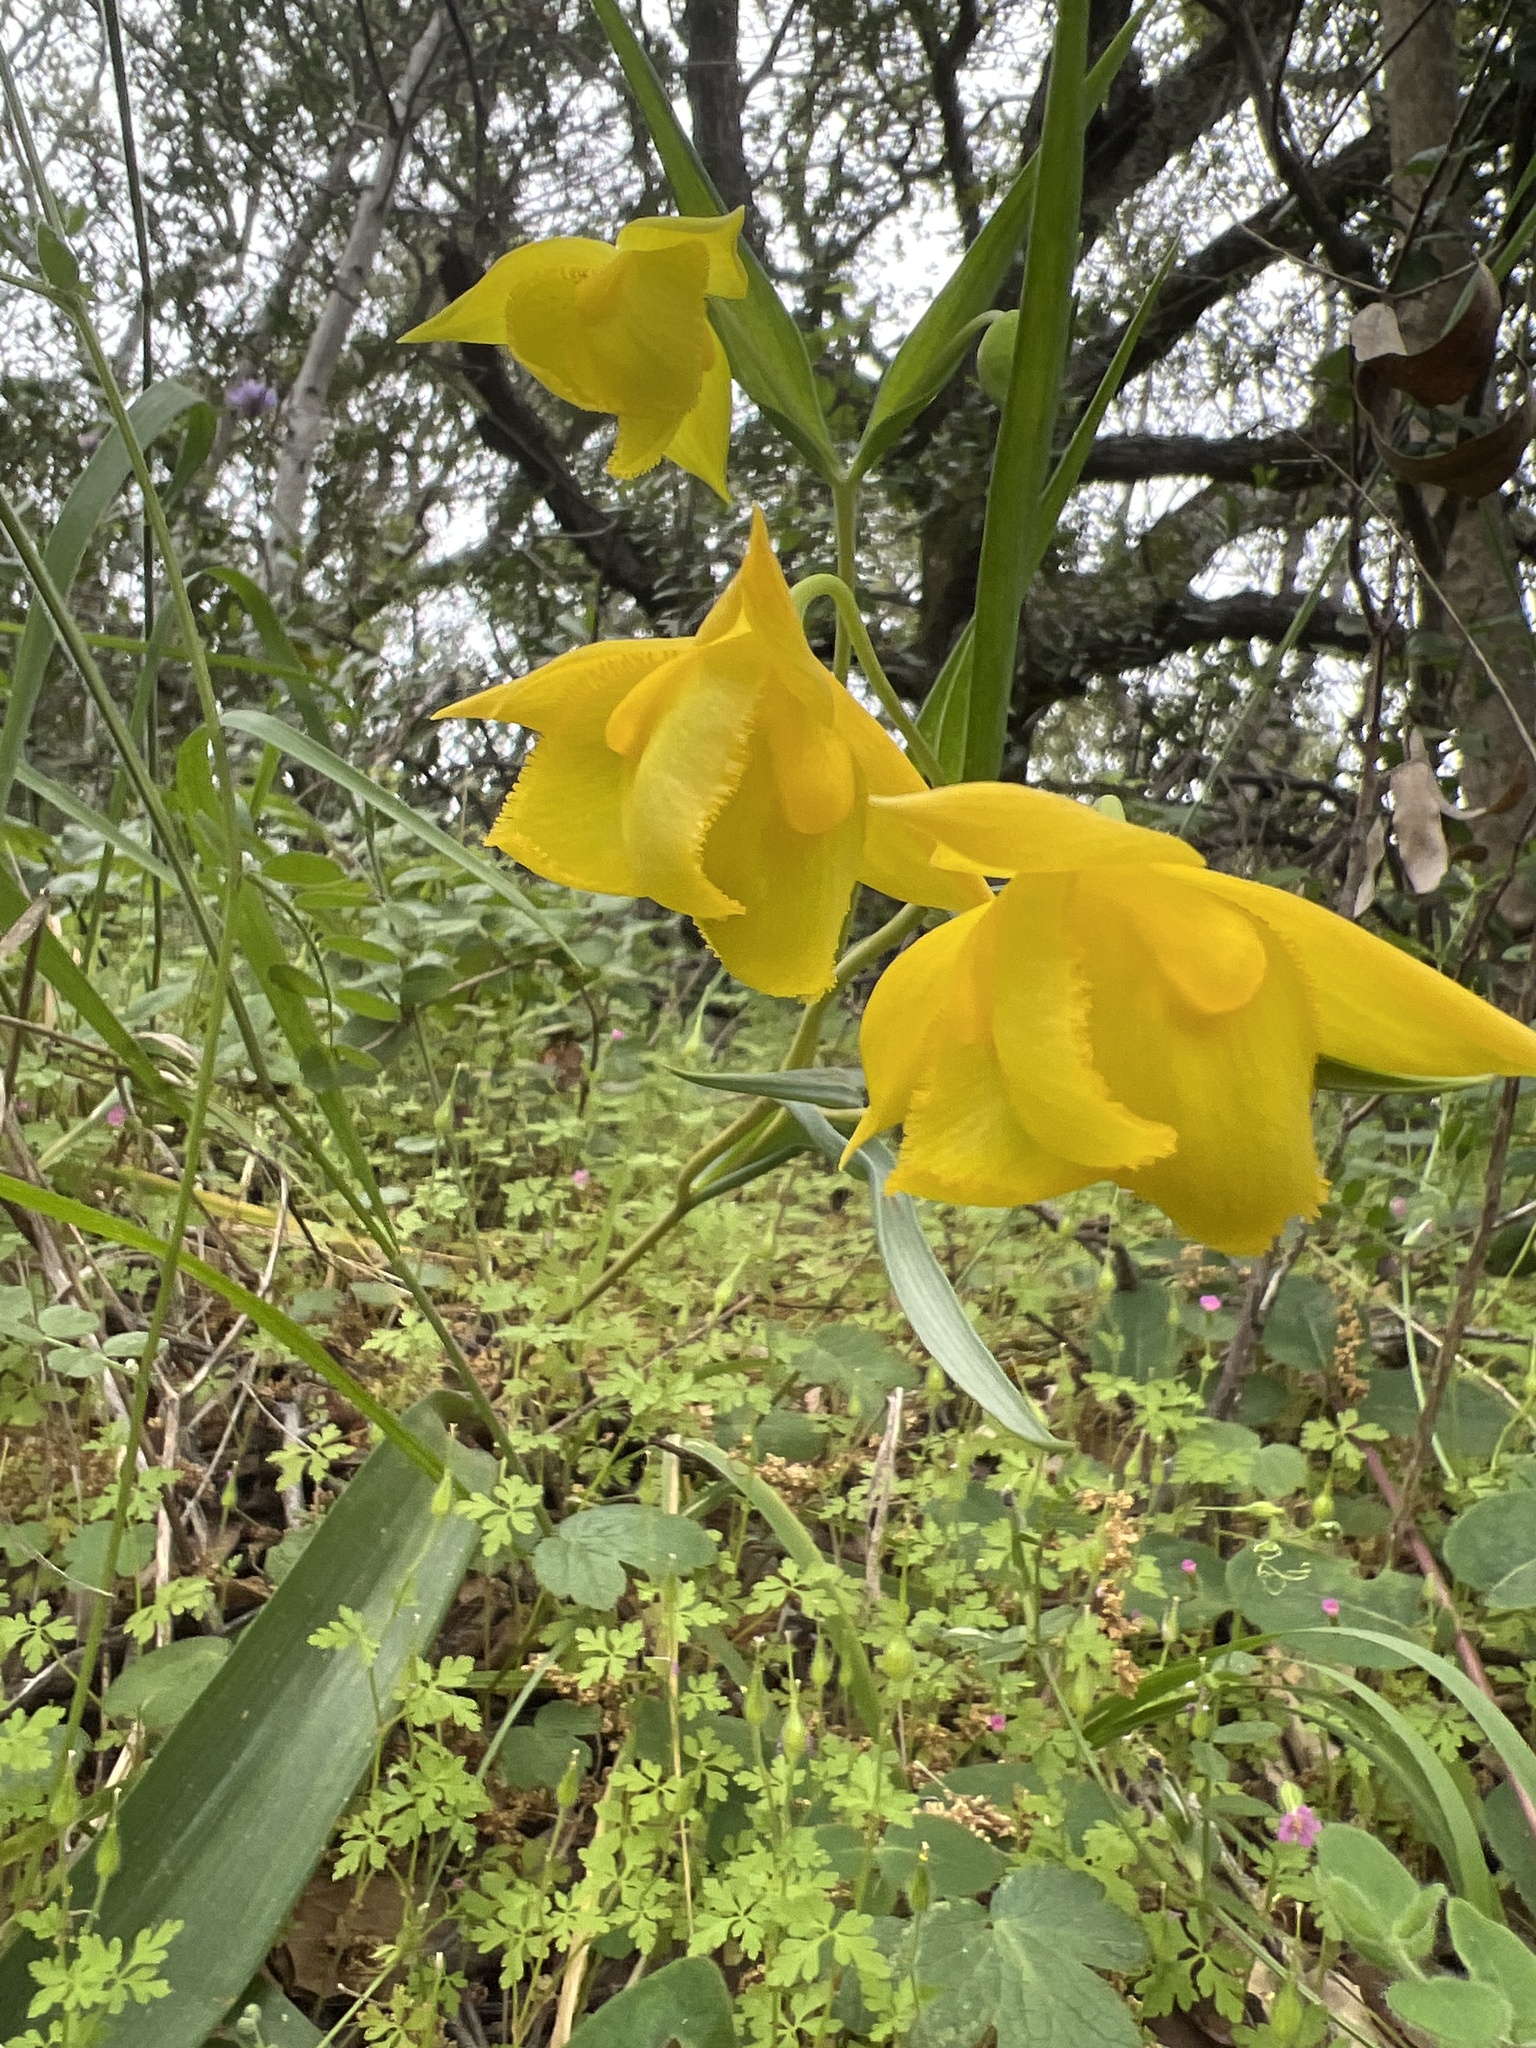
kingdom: Plantae
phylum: Tracheophyta
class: Liliopsida
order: Liliales
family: Liliaceae
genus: Calochortus
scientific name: Calochortus amabilis
